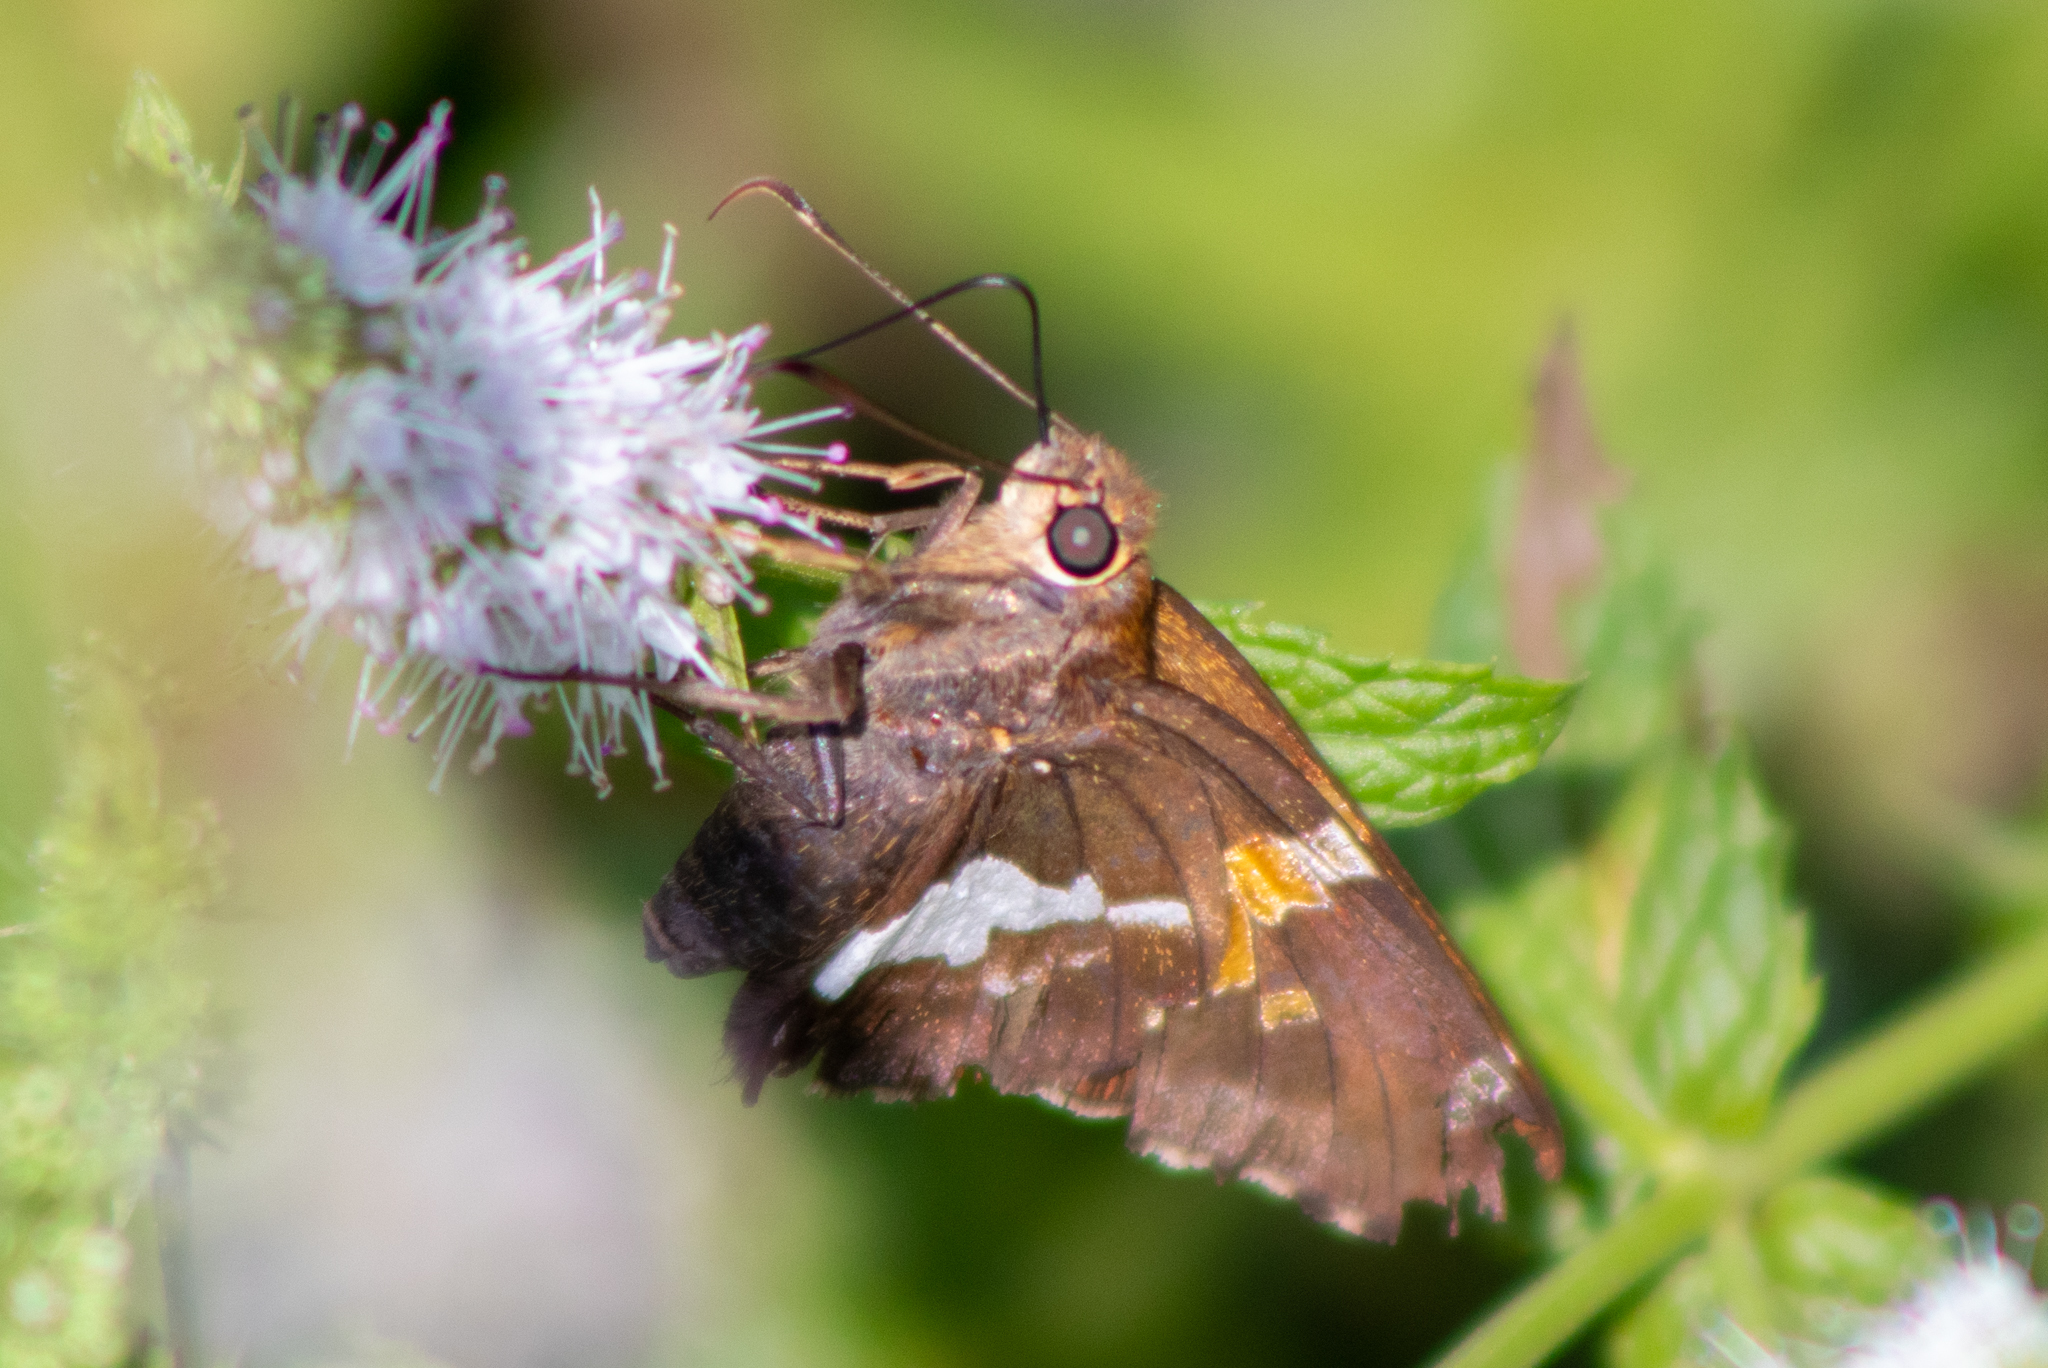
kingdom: Animalia
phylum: Arthropoda
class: Insecta
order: Lepidoptera
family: Hesperiidae
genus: Epargyreus
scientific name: Epargyreus clarus
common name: Silver-spotted skipper
